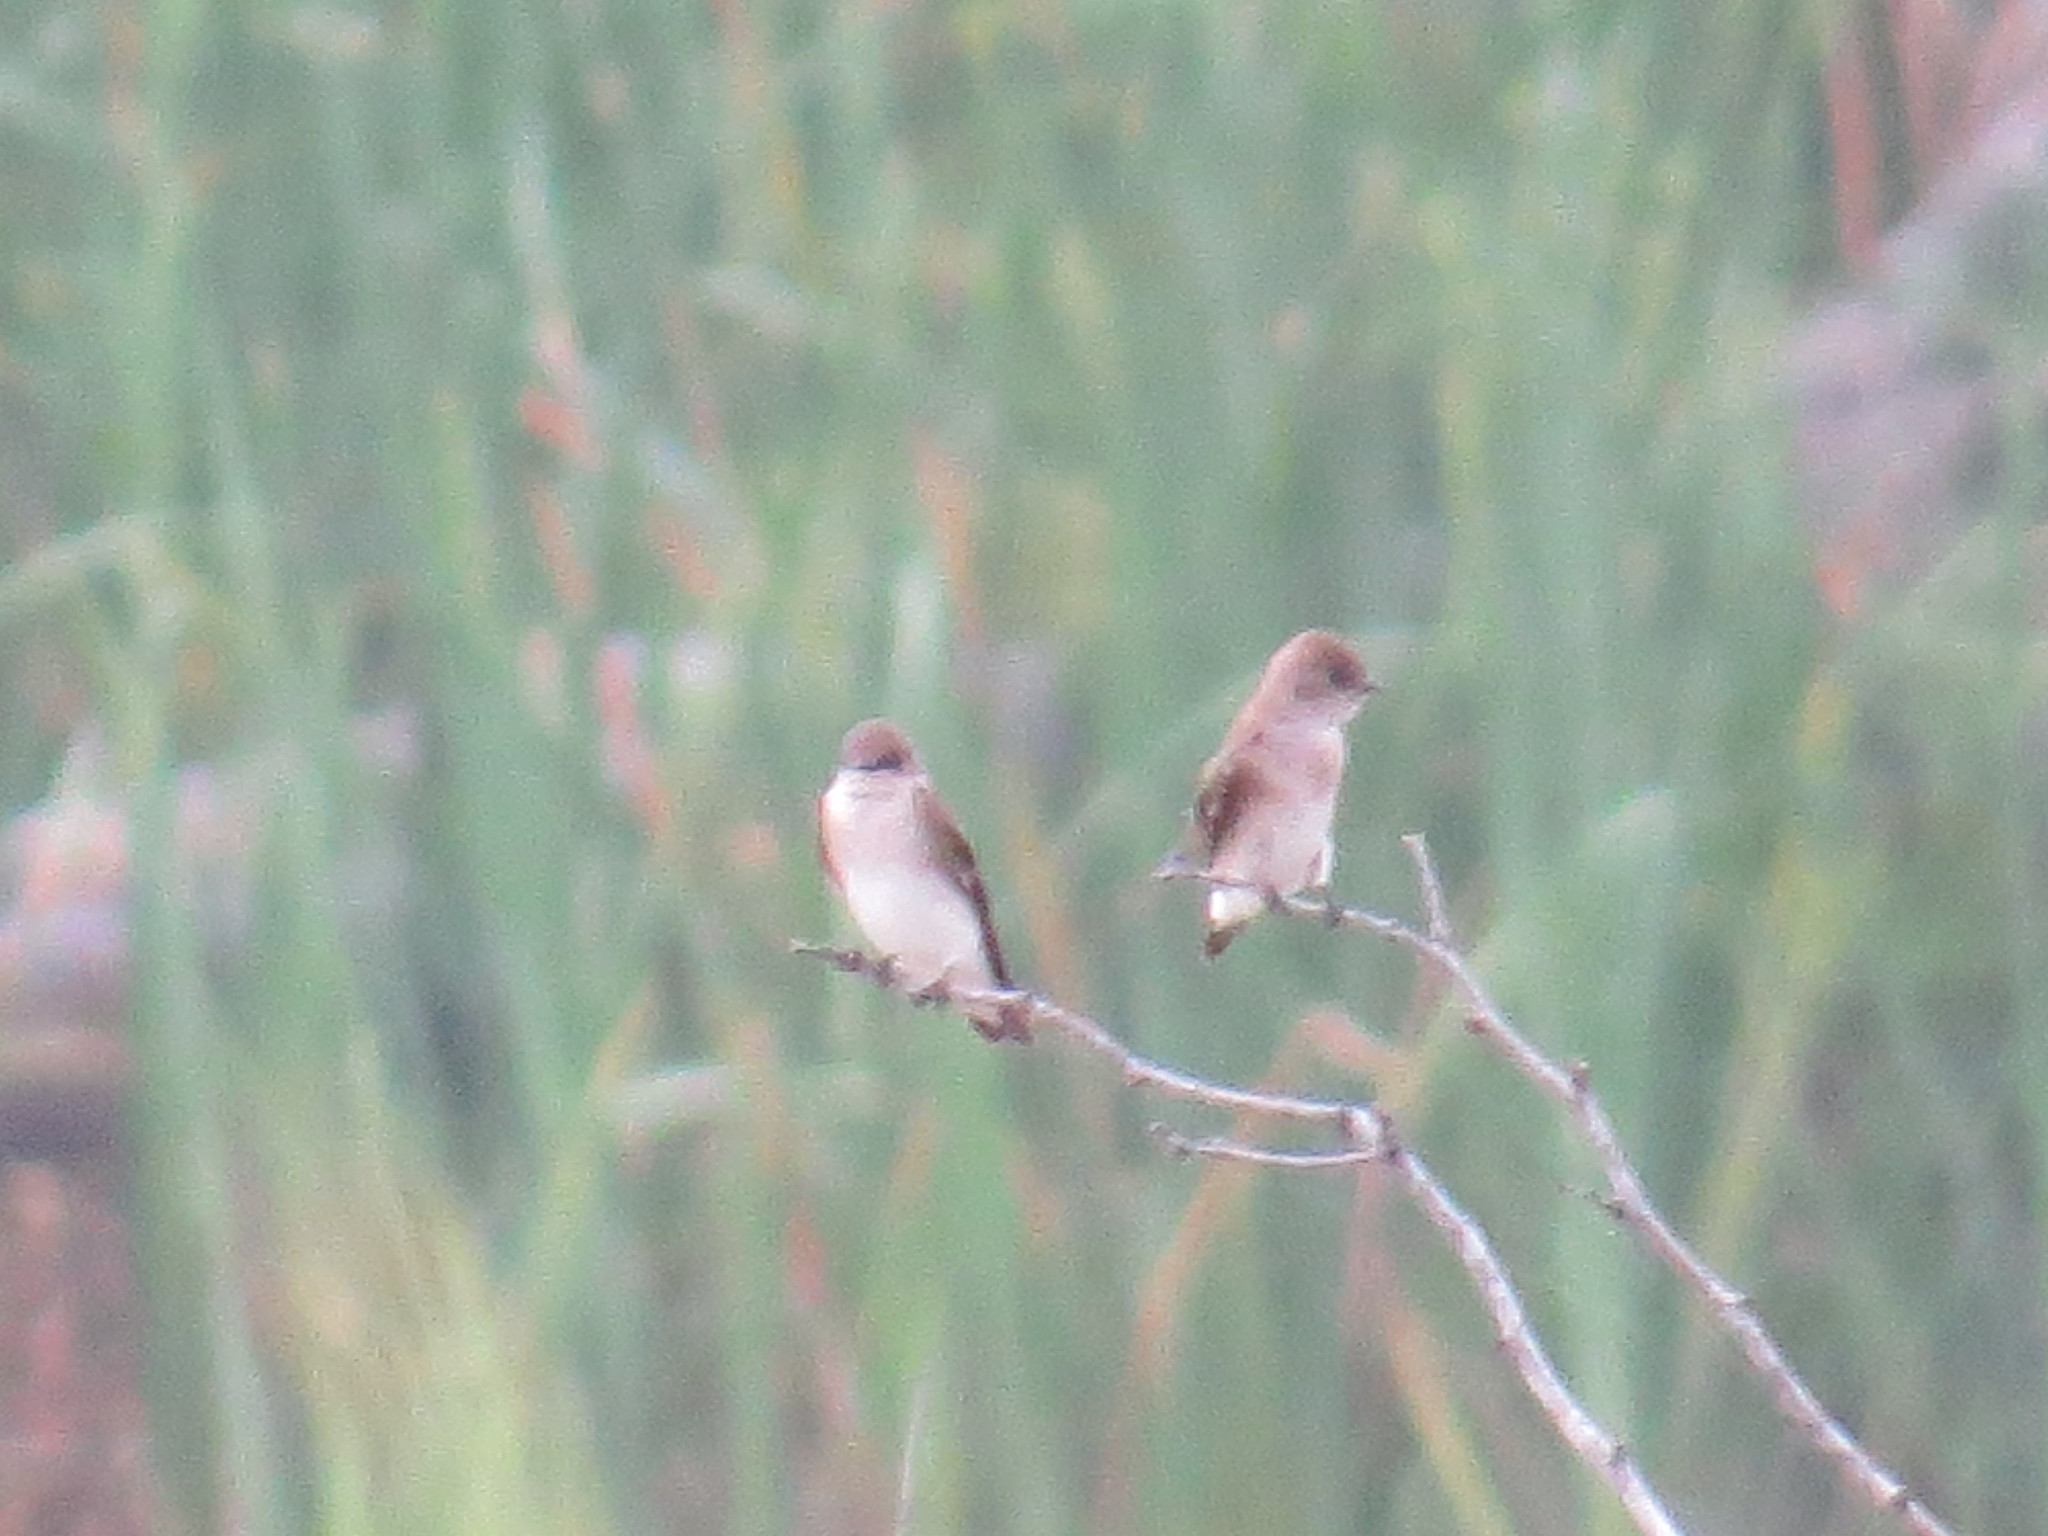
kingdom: Animalia
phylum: Chordata
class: Aves
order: Passeriformes
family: Hirundinidae
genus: Stelgidopteryx
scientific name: Stelgidopteryx serripennis
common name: Northern rough-winged swallow
